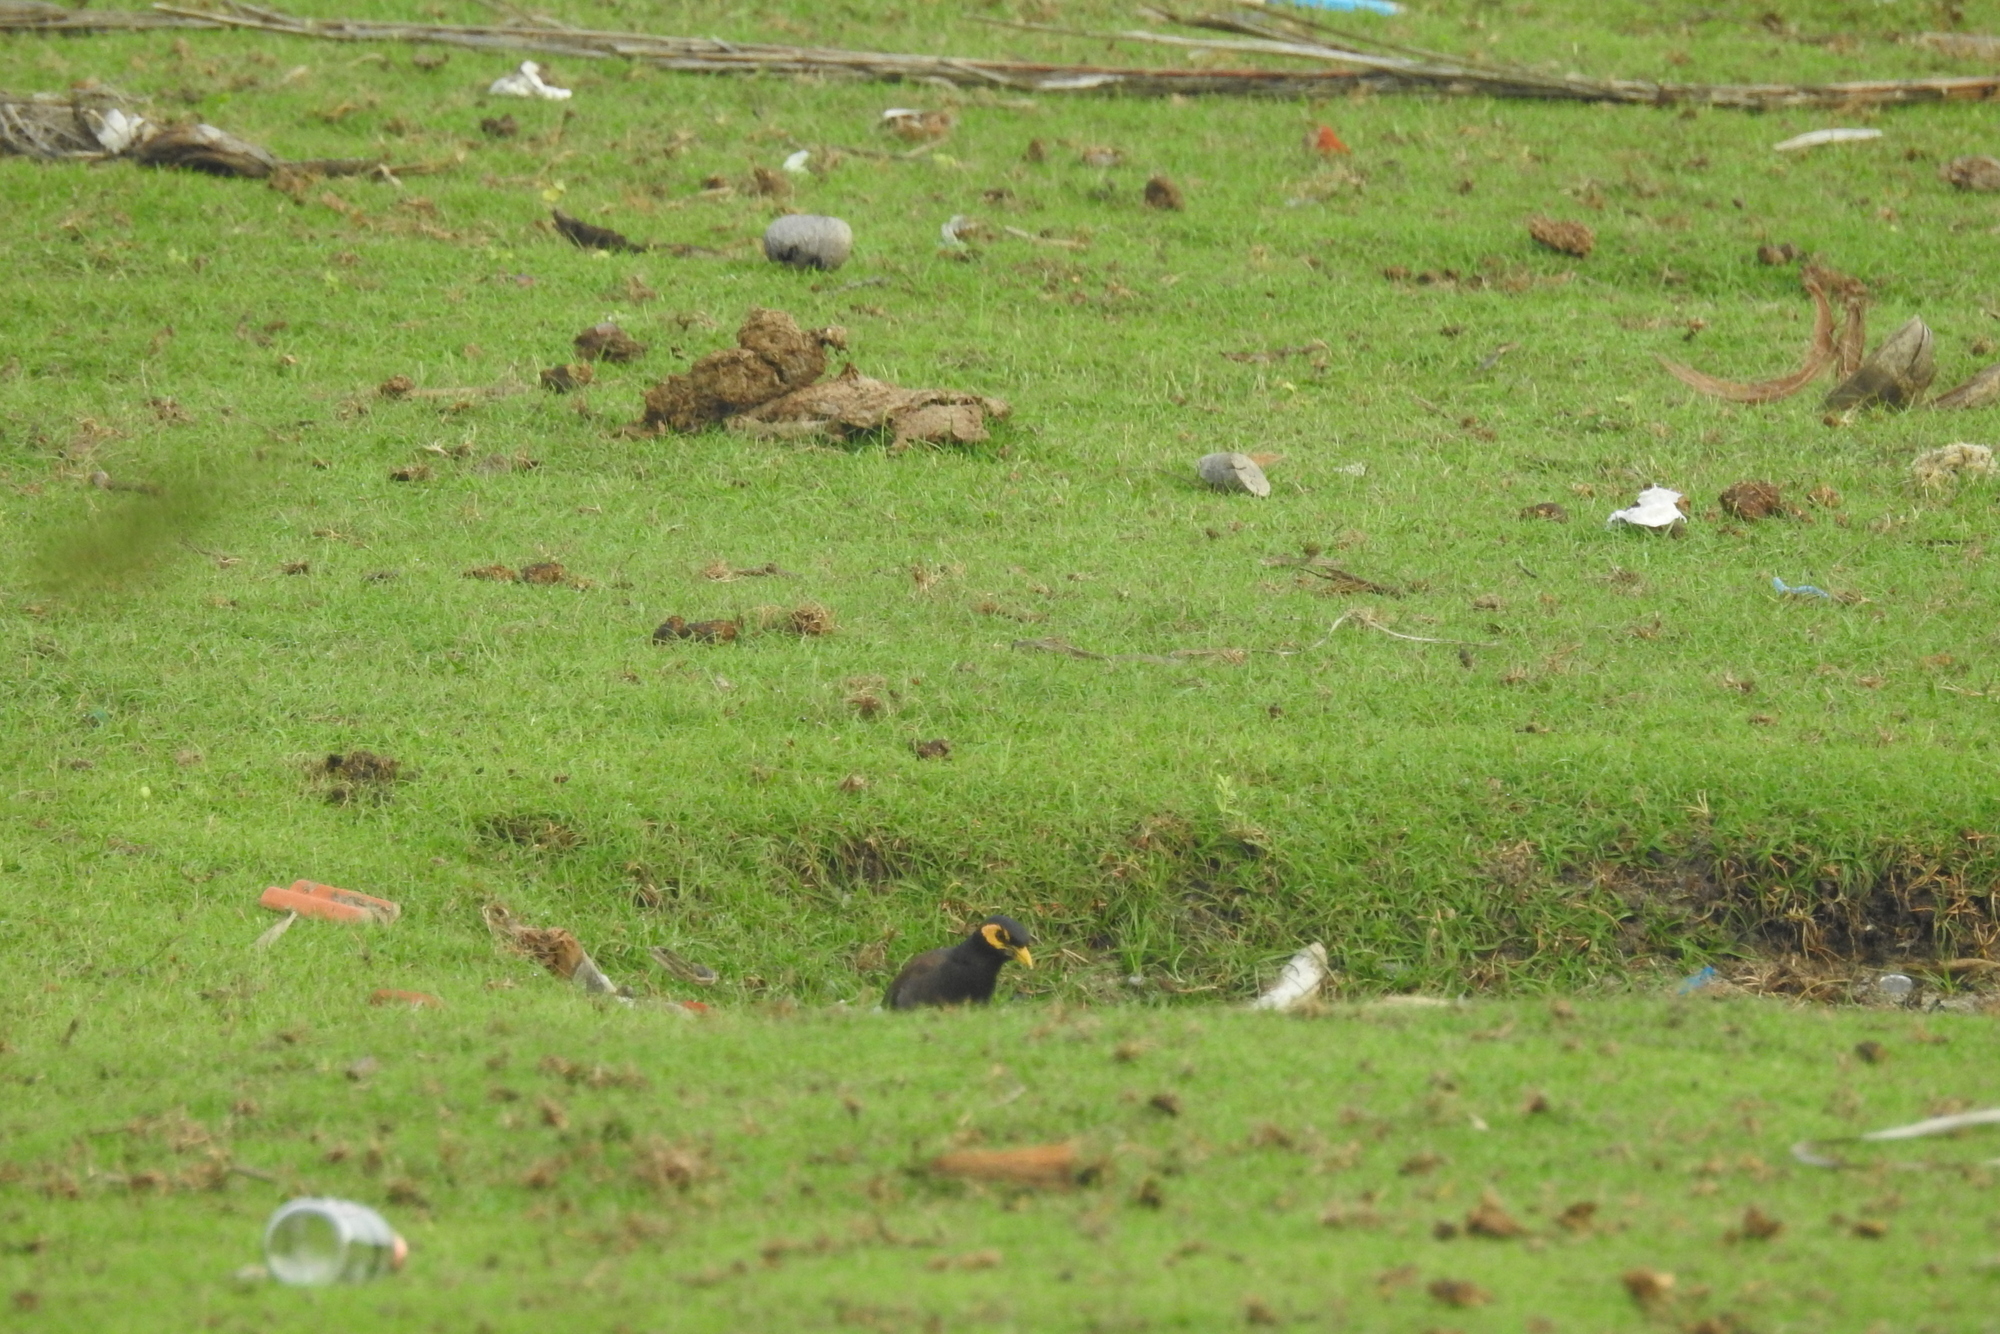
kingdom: Animalia
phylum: Chordata
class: Aves
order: Passeriformes
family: Sturnidae
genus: Acridotheres
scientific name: Acridotheres tristis
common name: Common myna
